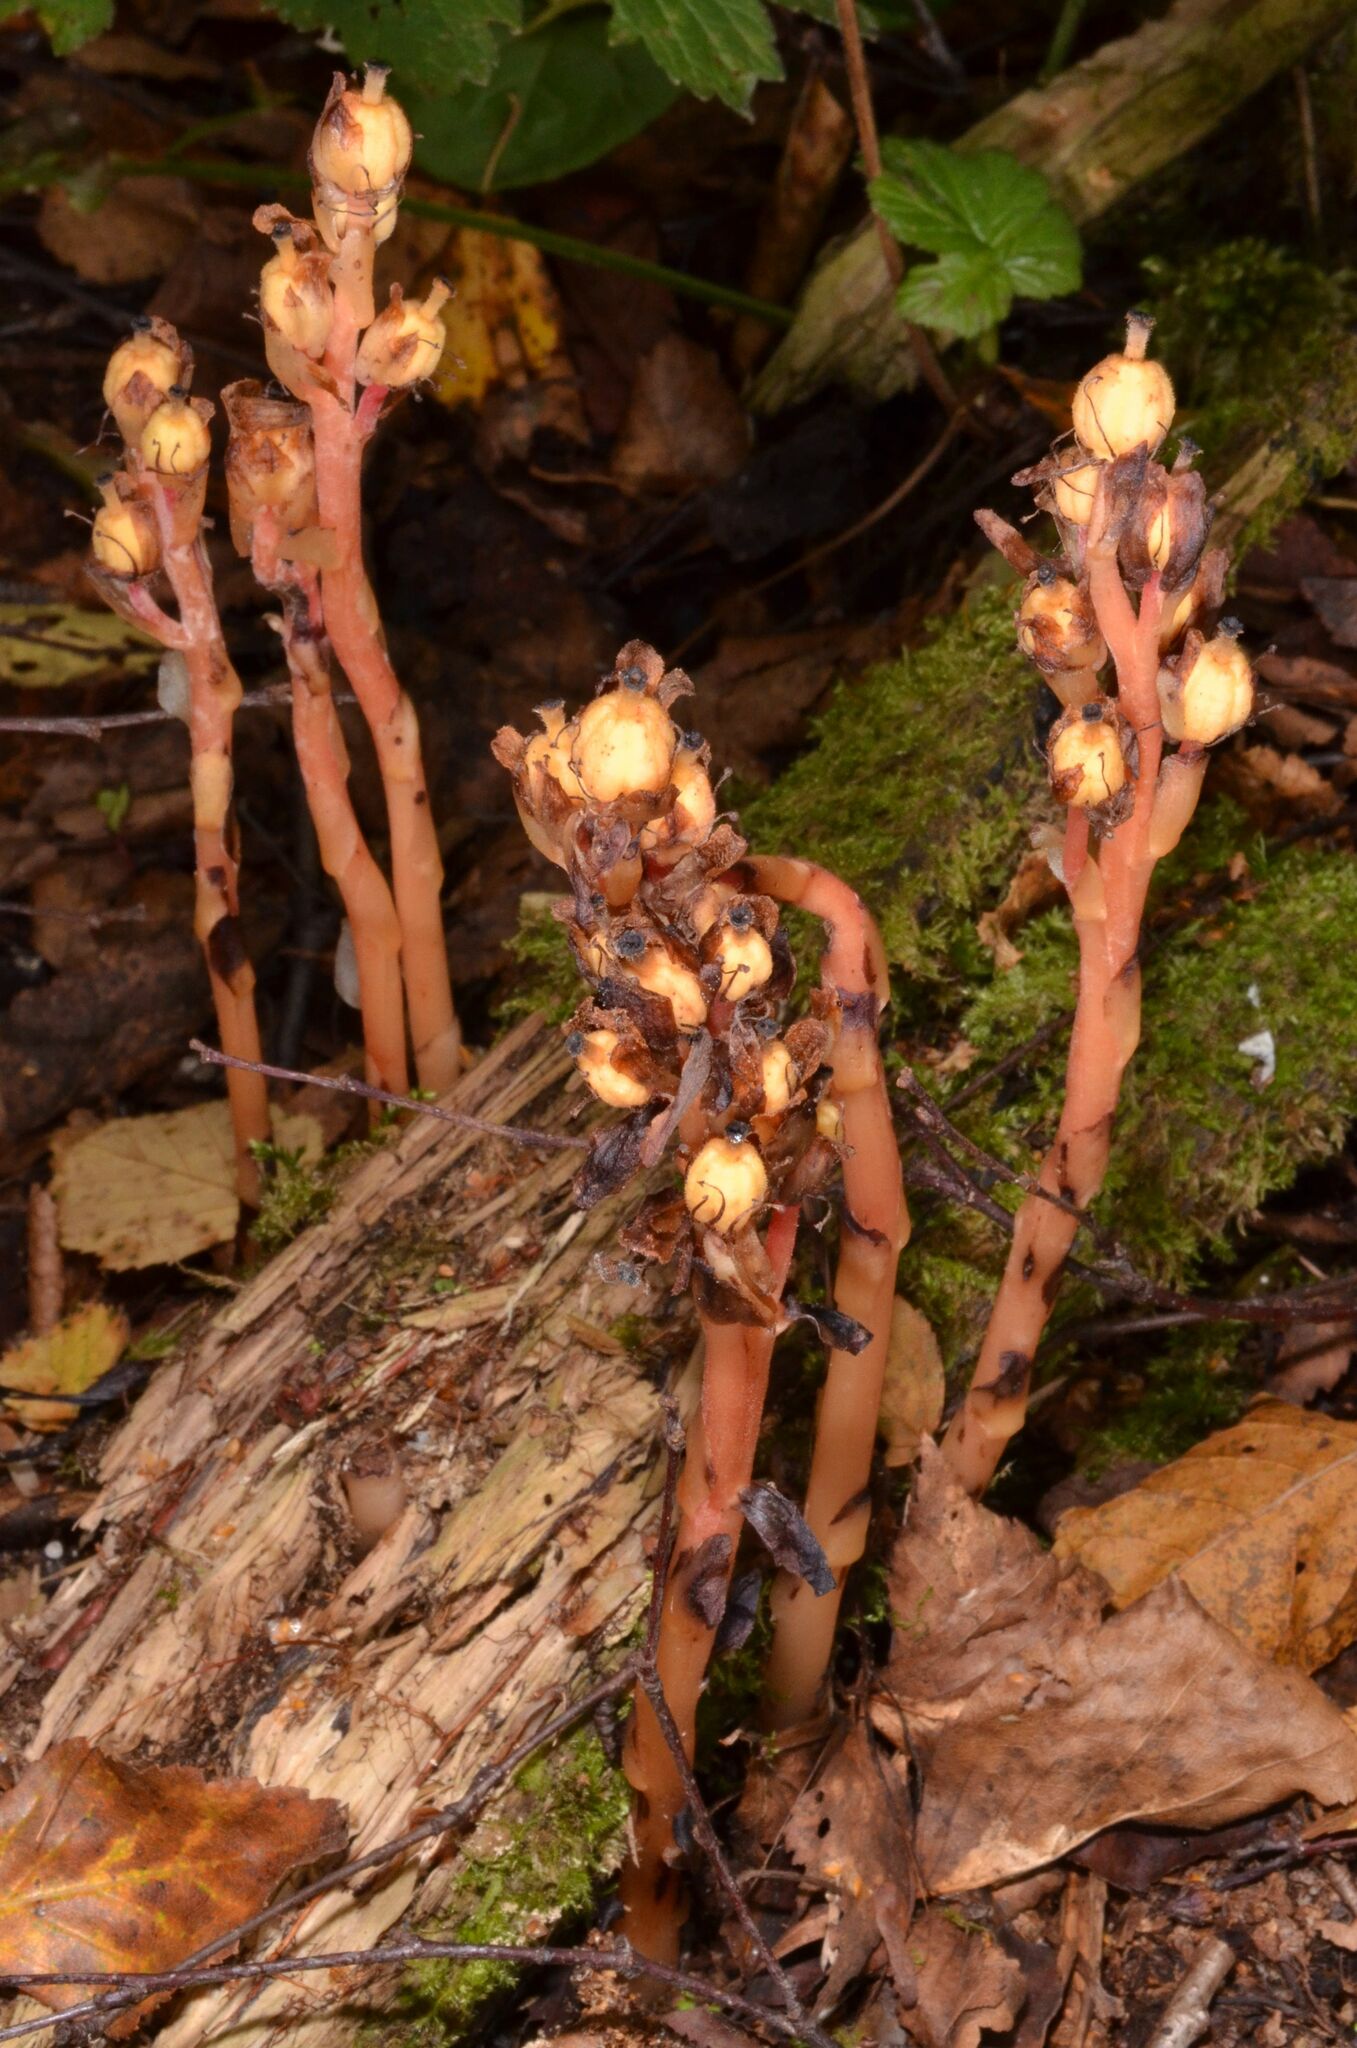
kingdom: Plantae
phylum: Tracheophyta
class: Magnoliopsida
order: Ericales
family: Ericaceae
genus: Hypopitys
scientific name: Hypopitys monotropa
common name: Yellow bird's-nest
